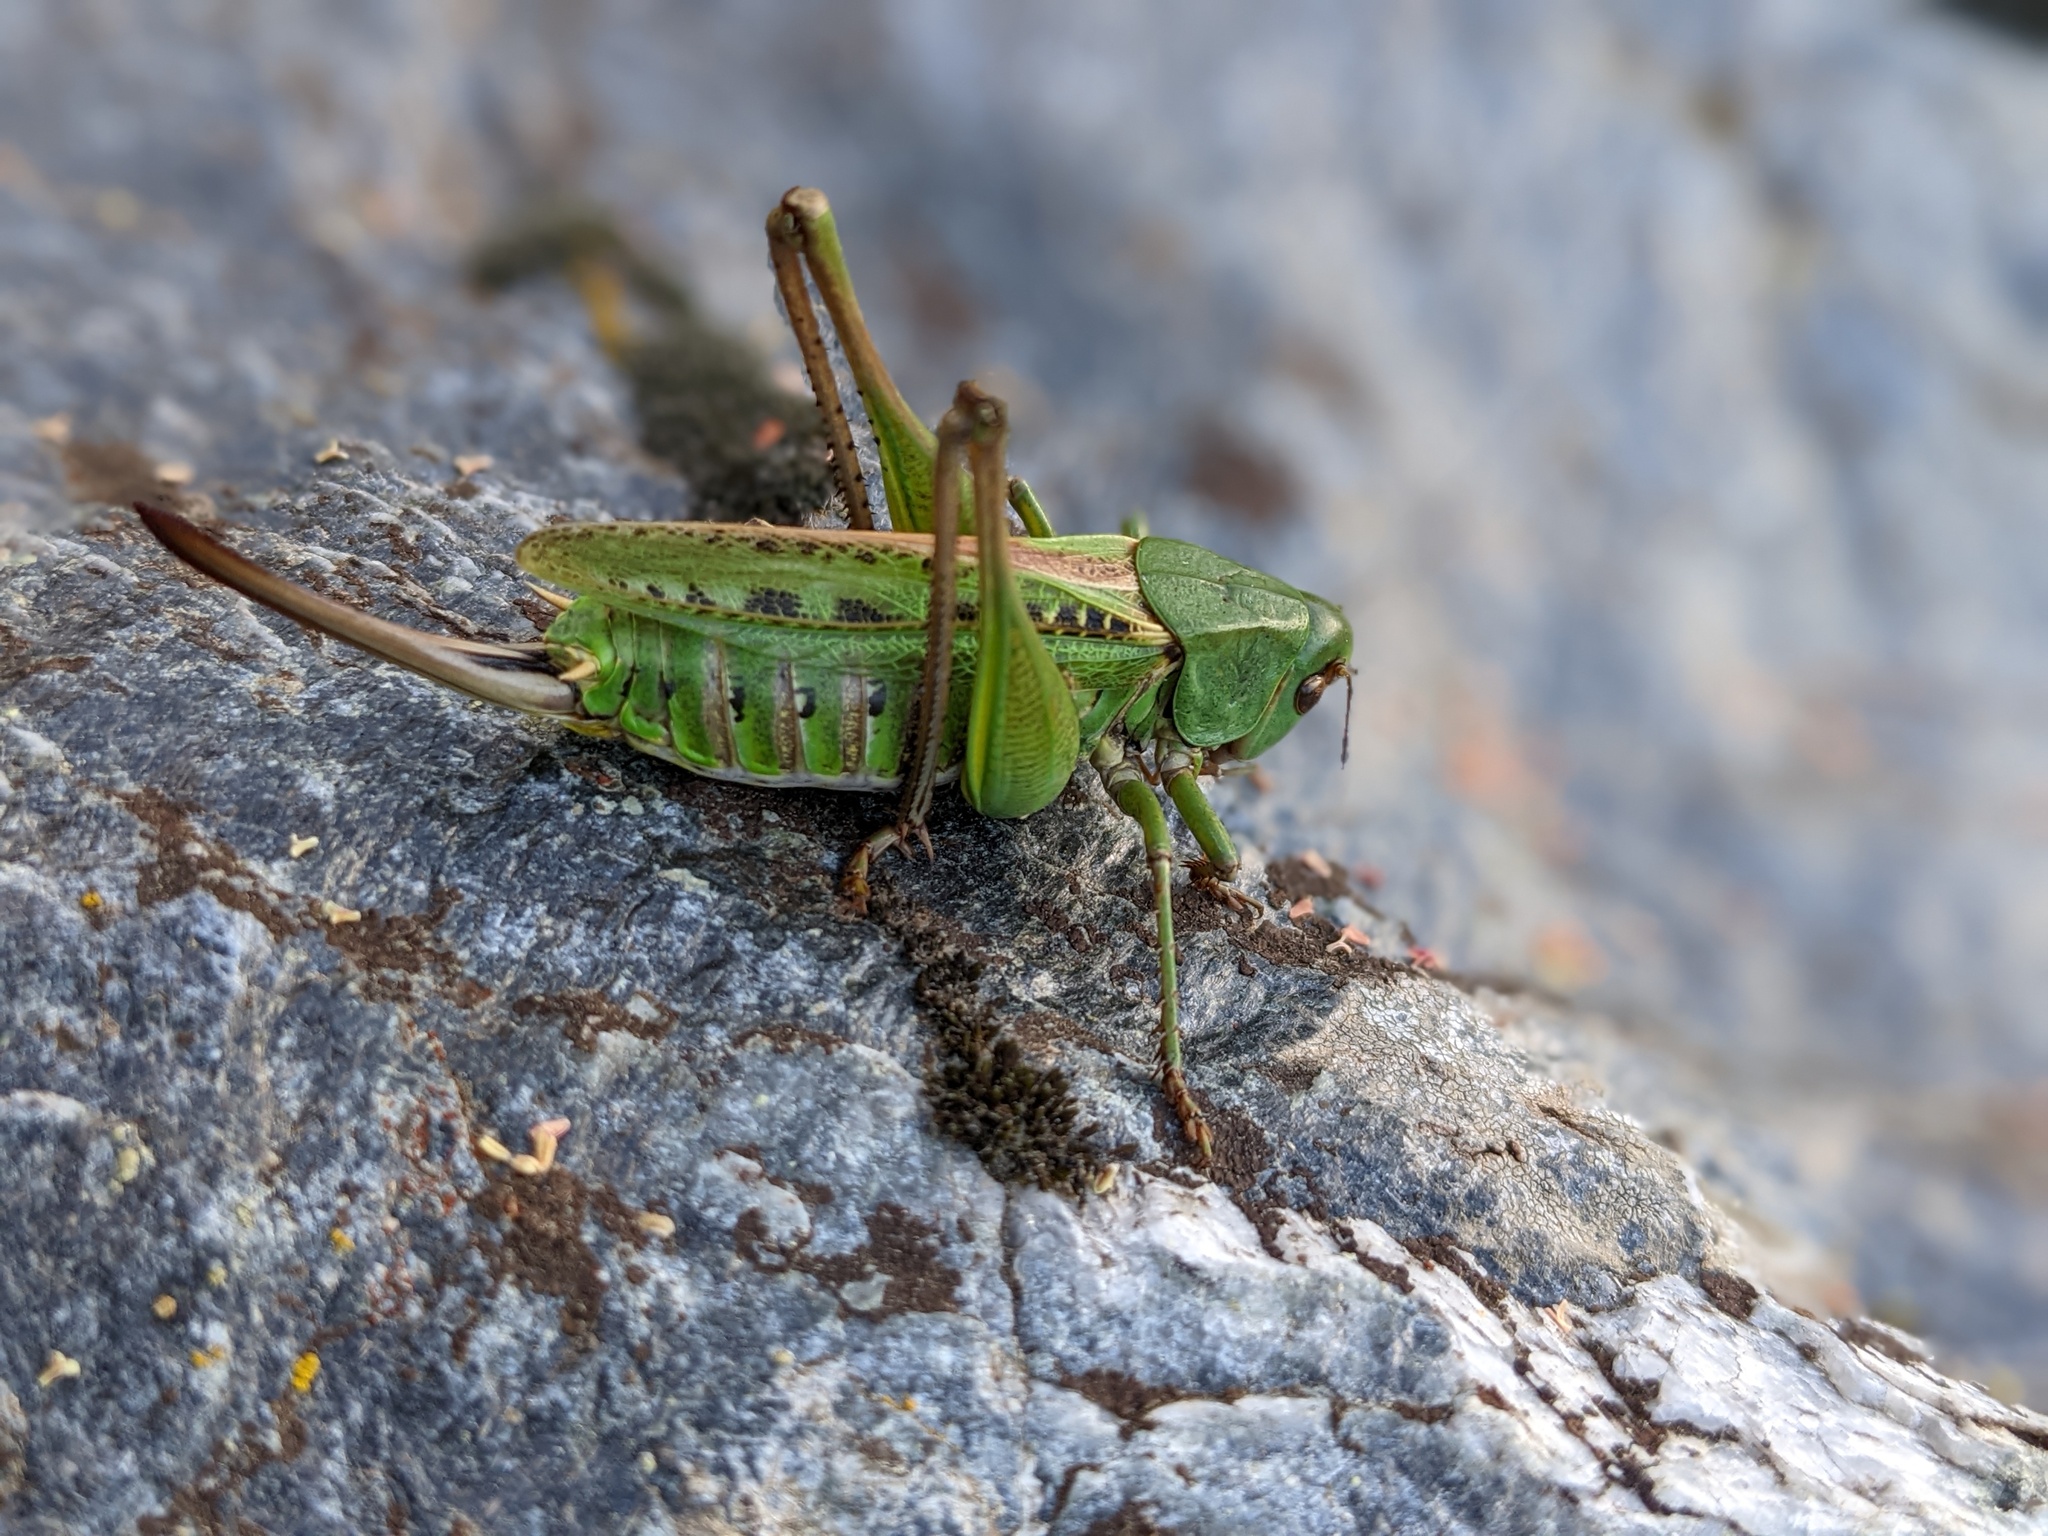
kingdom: Animalia
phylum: Arthropoda
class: Insecta
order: Orthoptera
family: Tettigoniidae
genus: Decticus
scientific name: Decticus verrucivorus
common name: Wart-biter
